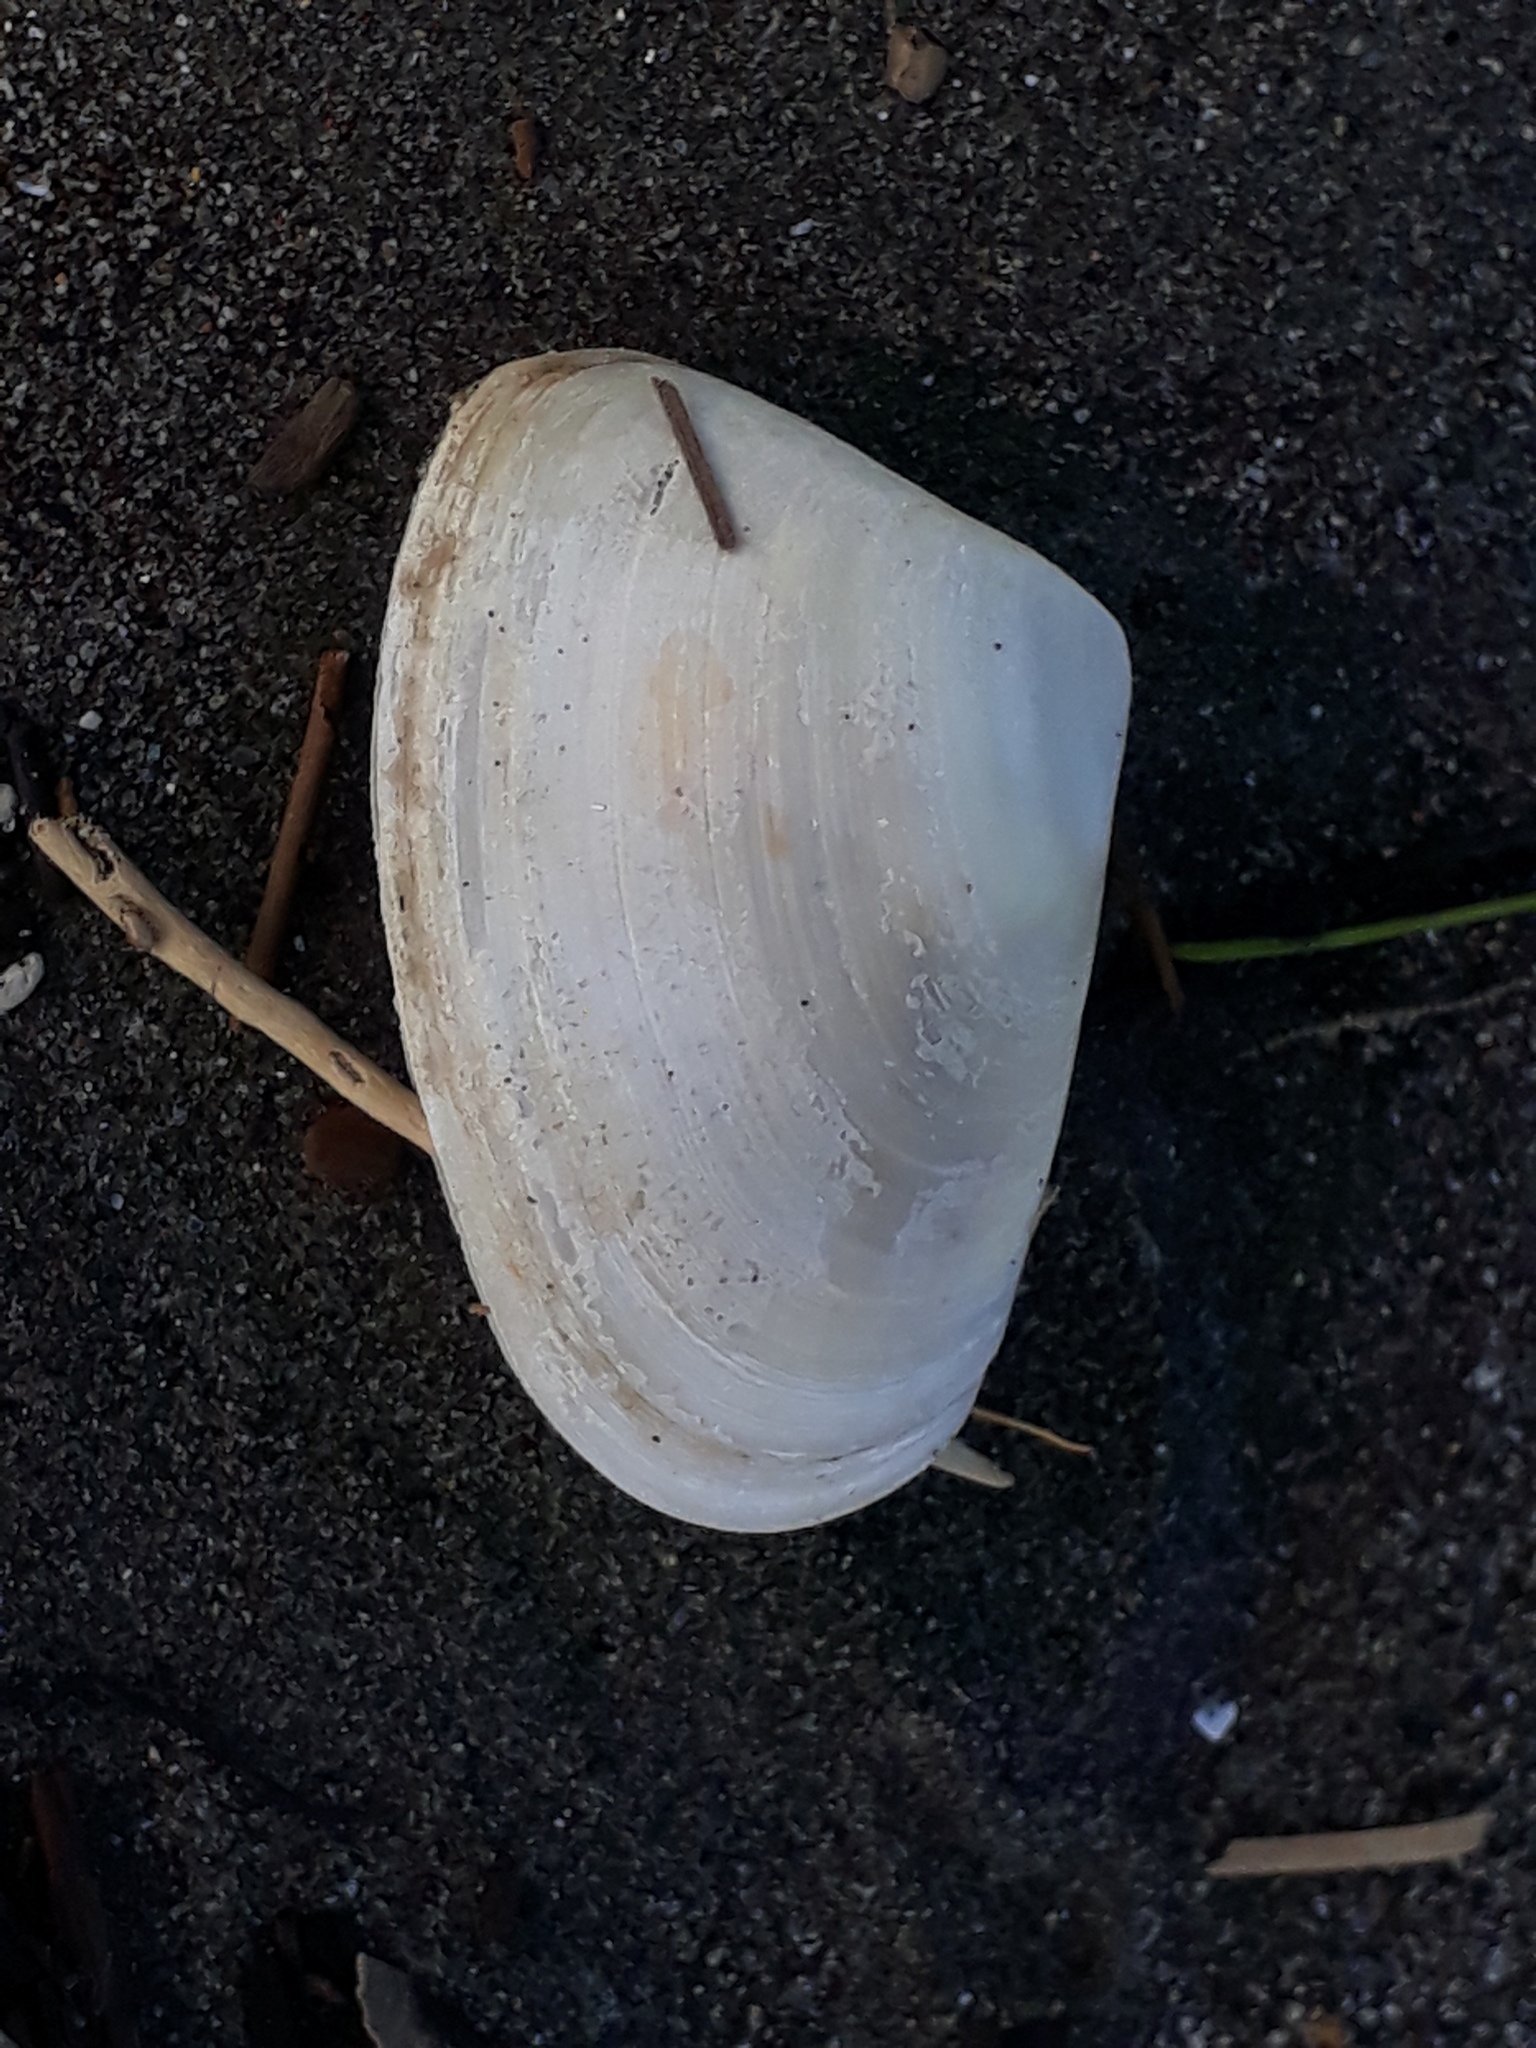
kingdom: Animalia
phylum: Mollusca
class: Bivalvia
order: Venerida
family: Mesodesmatidae
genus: Paphies
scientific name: Paphies donacina
